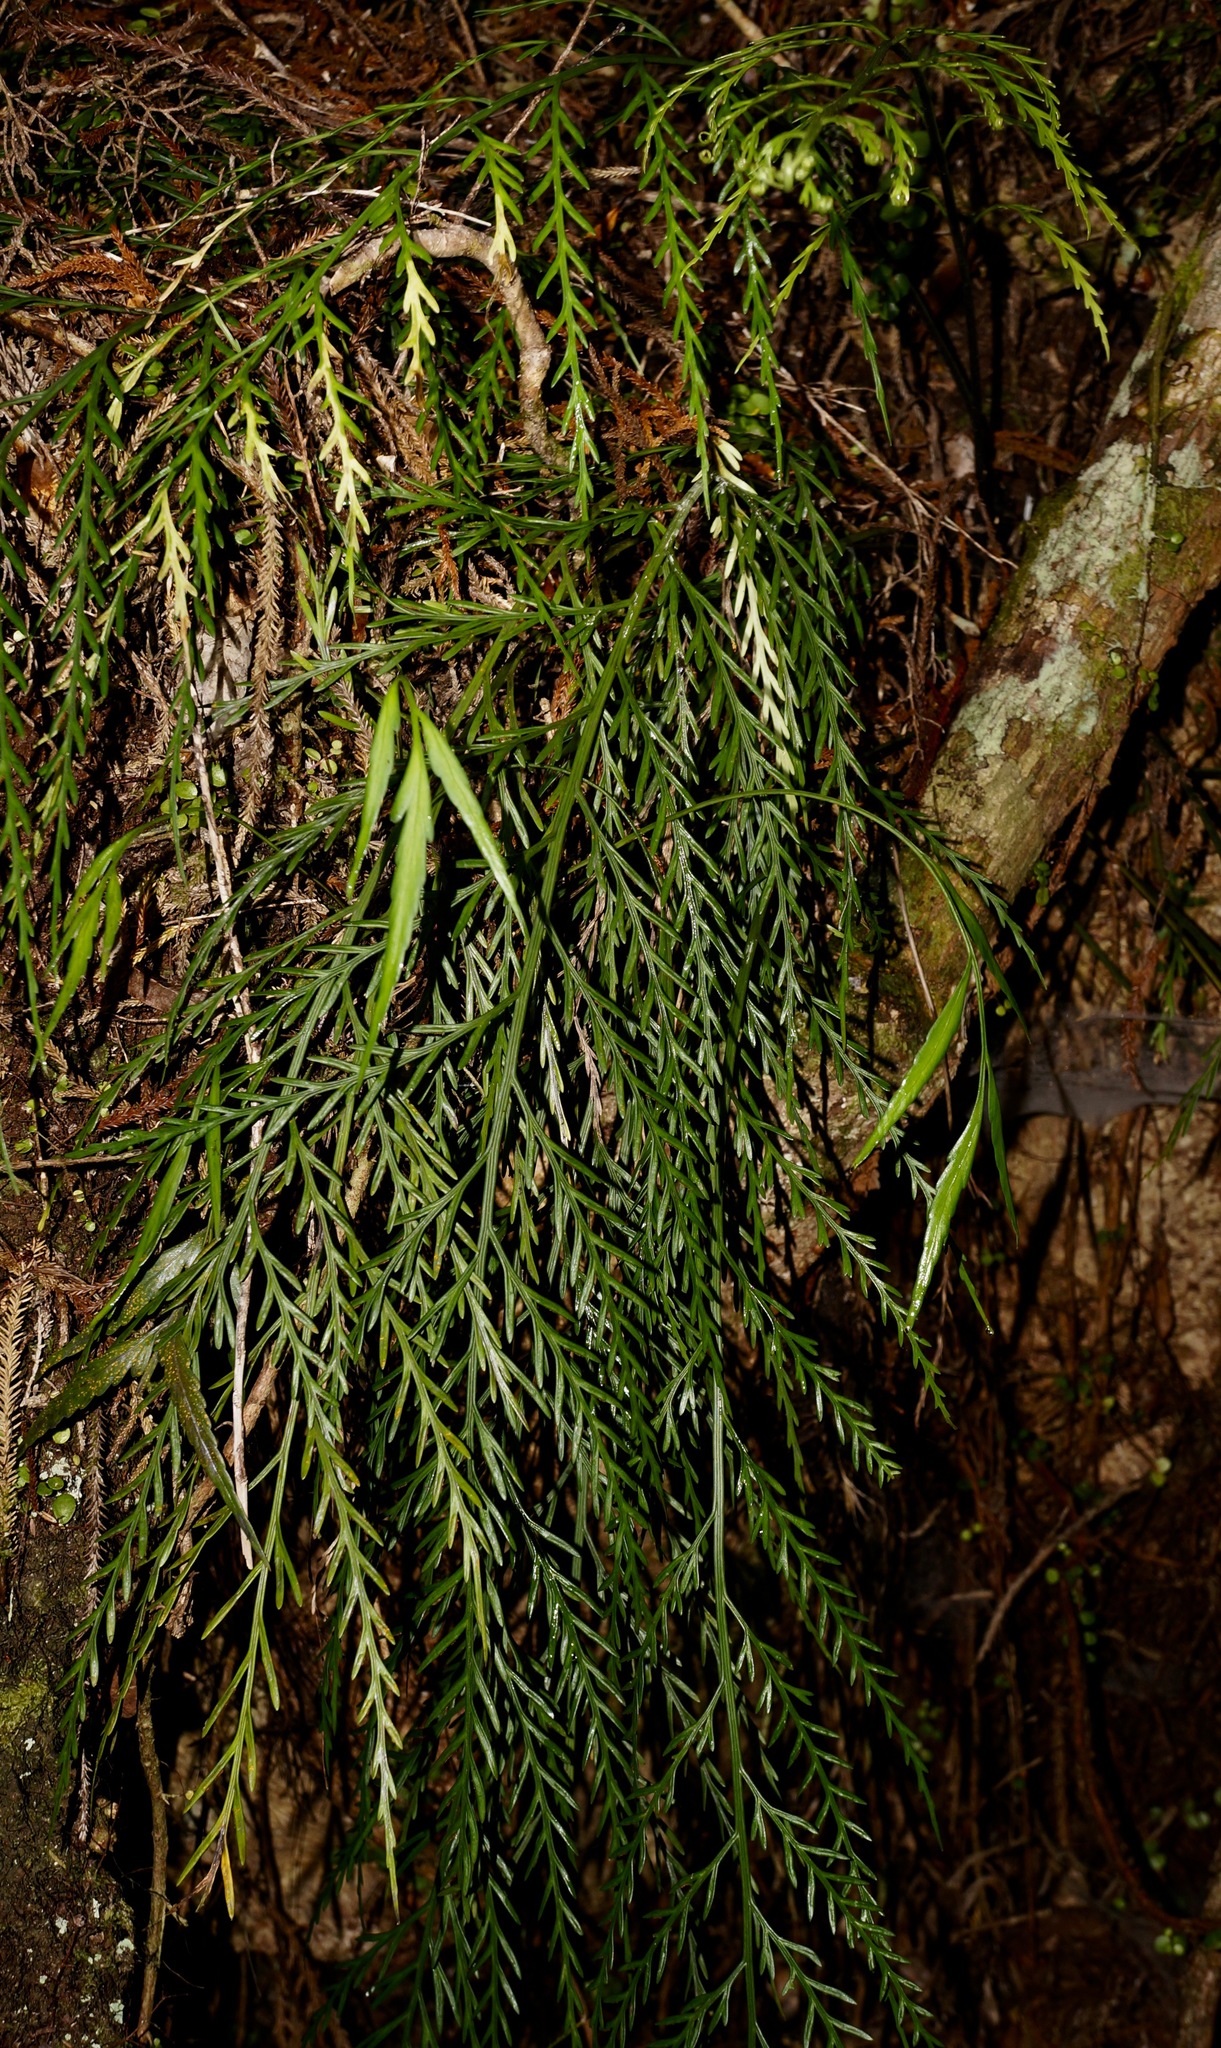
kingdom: Plantae
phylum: Tracheophyta
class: Polypodiopsida
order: Polypodiales
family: Aspleniaceae
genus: Asplenium
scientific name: Asplenium flaccidum
